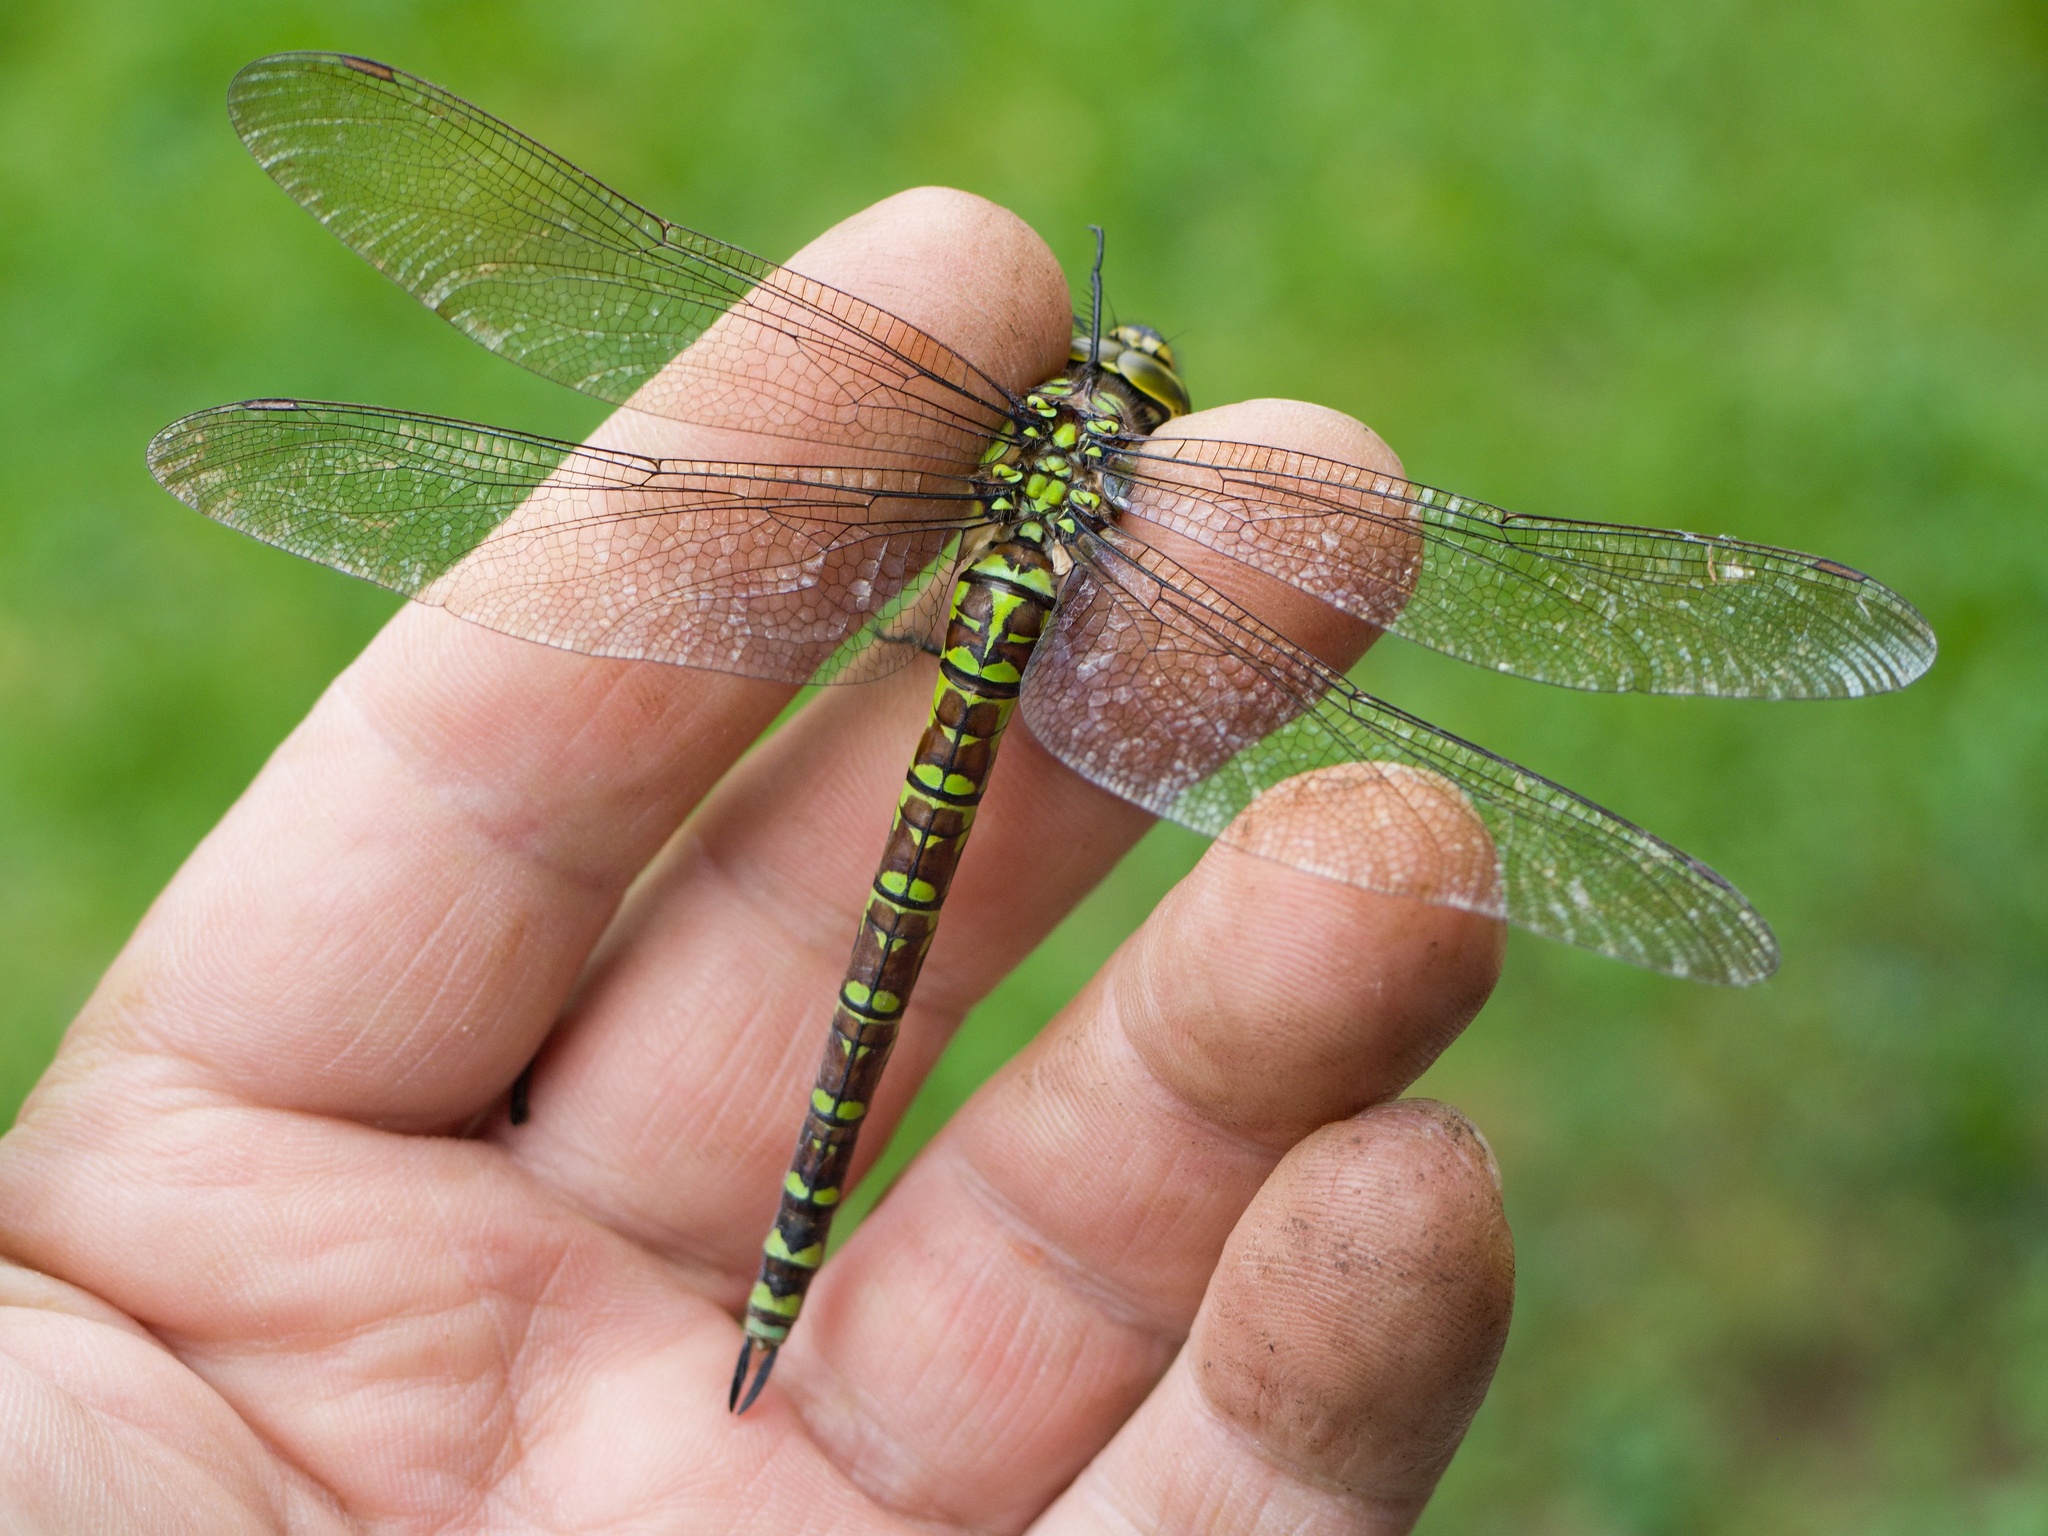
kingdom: Animalia
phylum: Arthropoda
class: Insecta
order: Odonata
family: Aeshnidae
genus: Aeshna
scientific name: Aeshna cyanea
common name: Southern hawker
